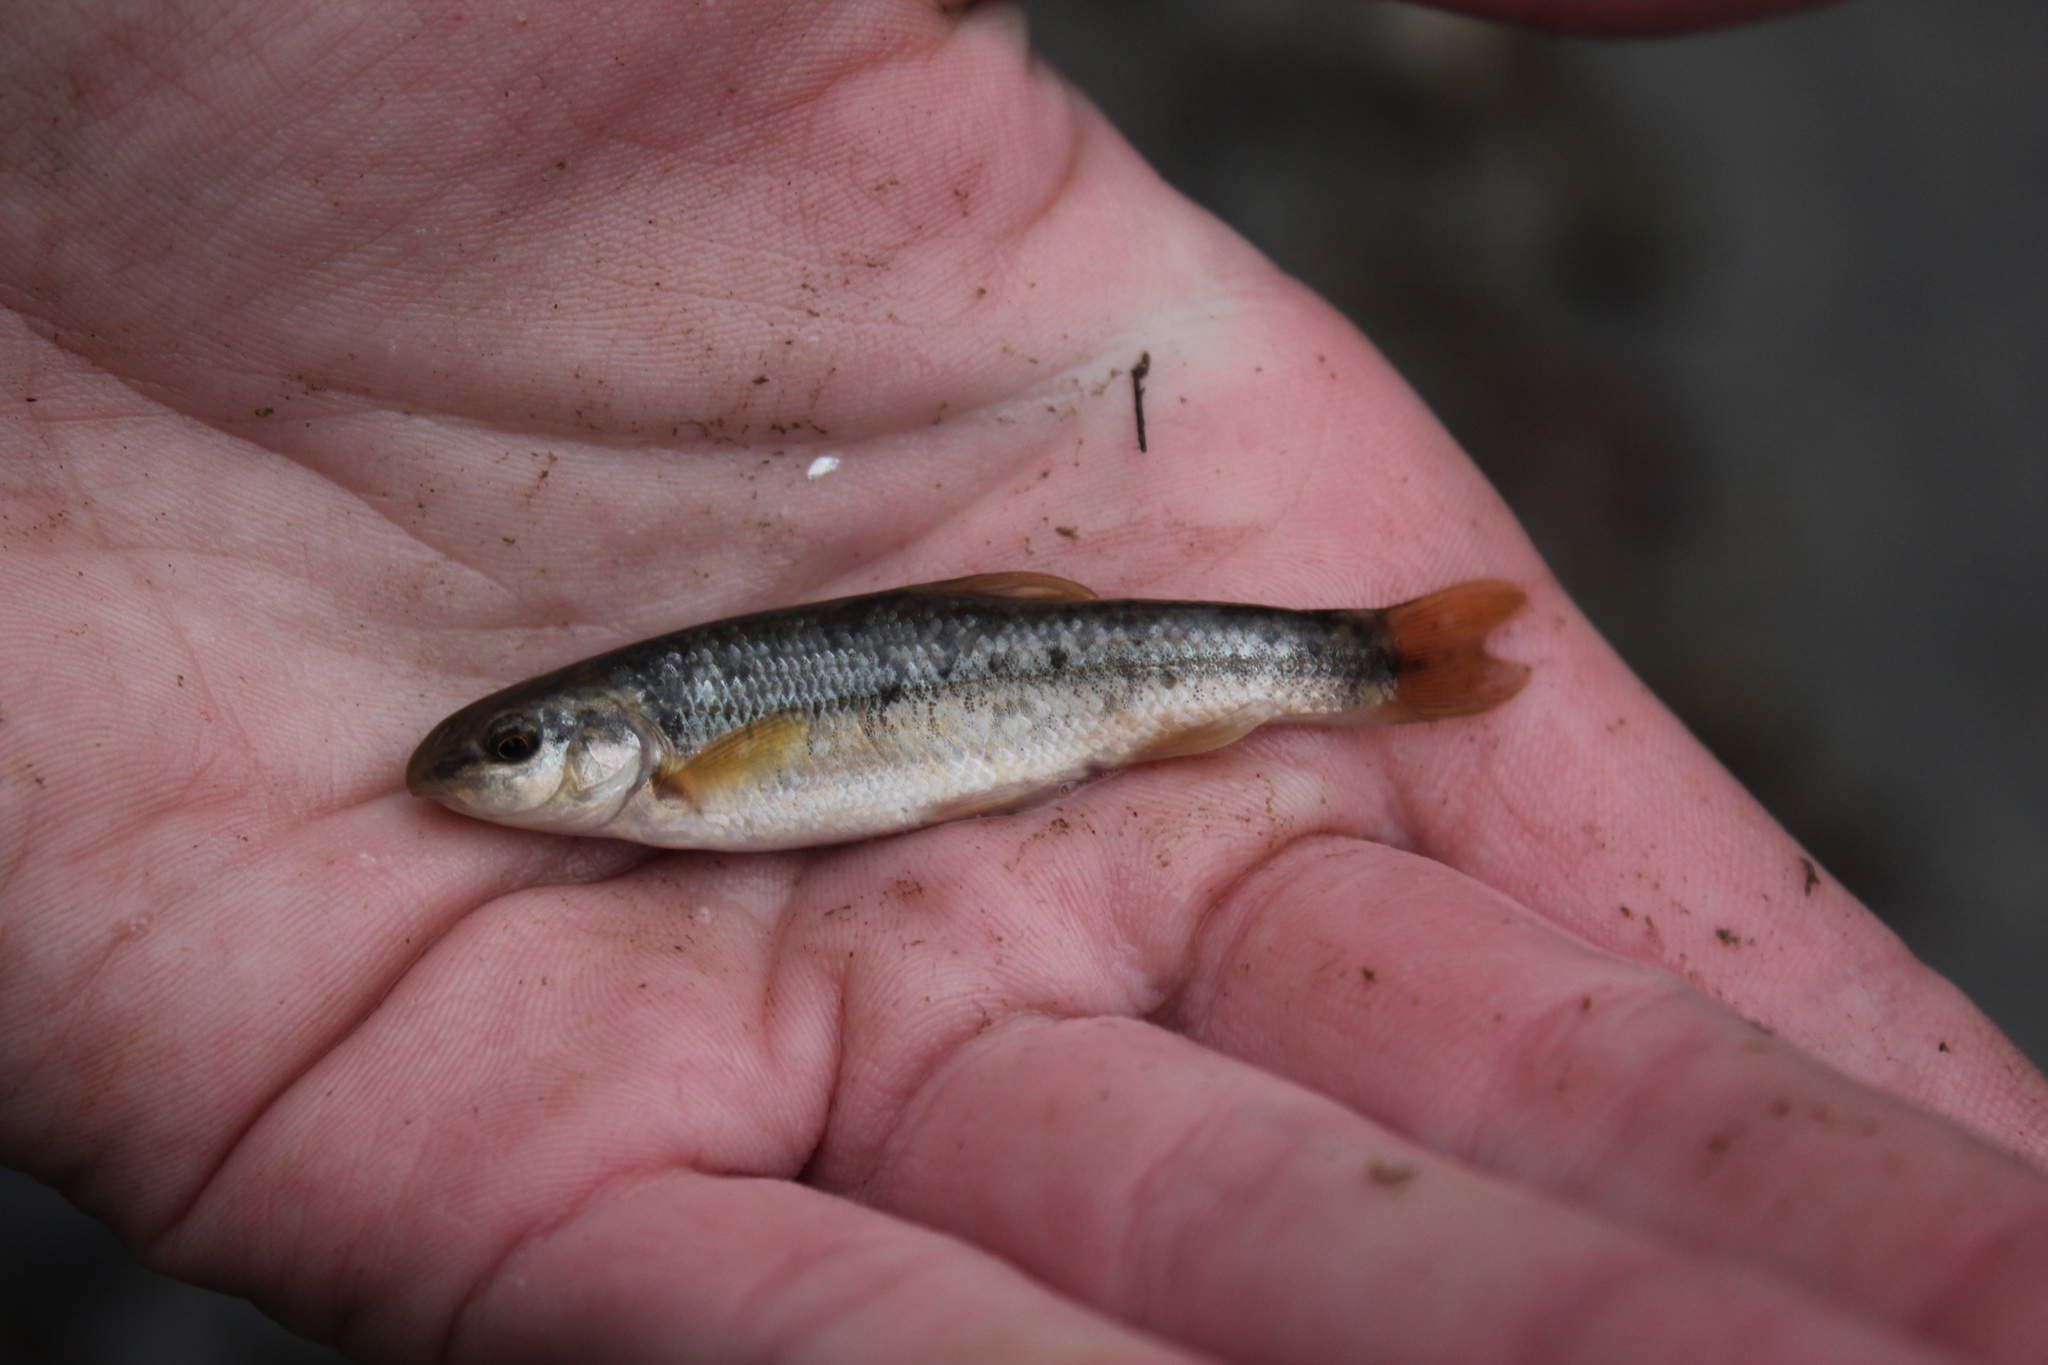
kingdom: Animalia
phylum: Chordata
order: Cypriniformes
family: Cyprinidae
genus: Campostoma
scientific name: Campostoma anomalum
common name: Central stoneroller
